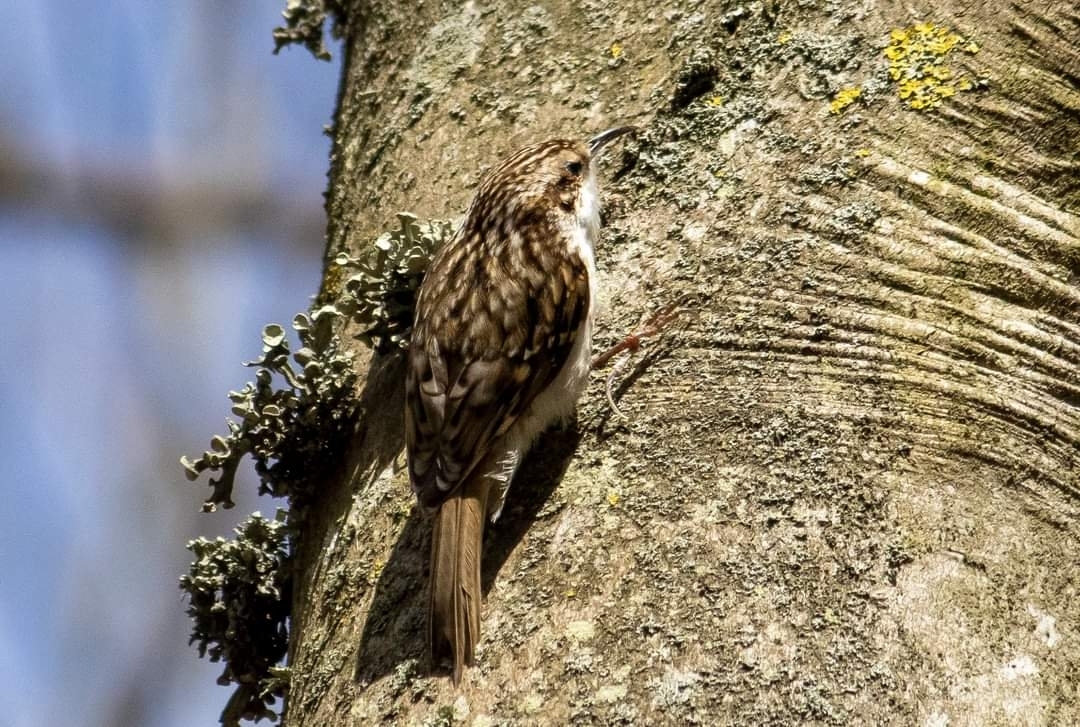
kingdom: Animalia
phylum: Chordata
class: Aves
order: Passeriformes
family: Certhiidae
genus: Certhia
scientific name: Certhia familiaris
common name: Eurasian treecreeper
